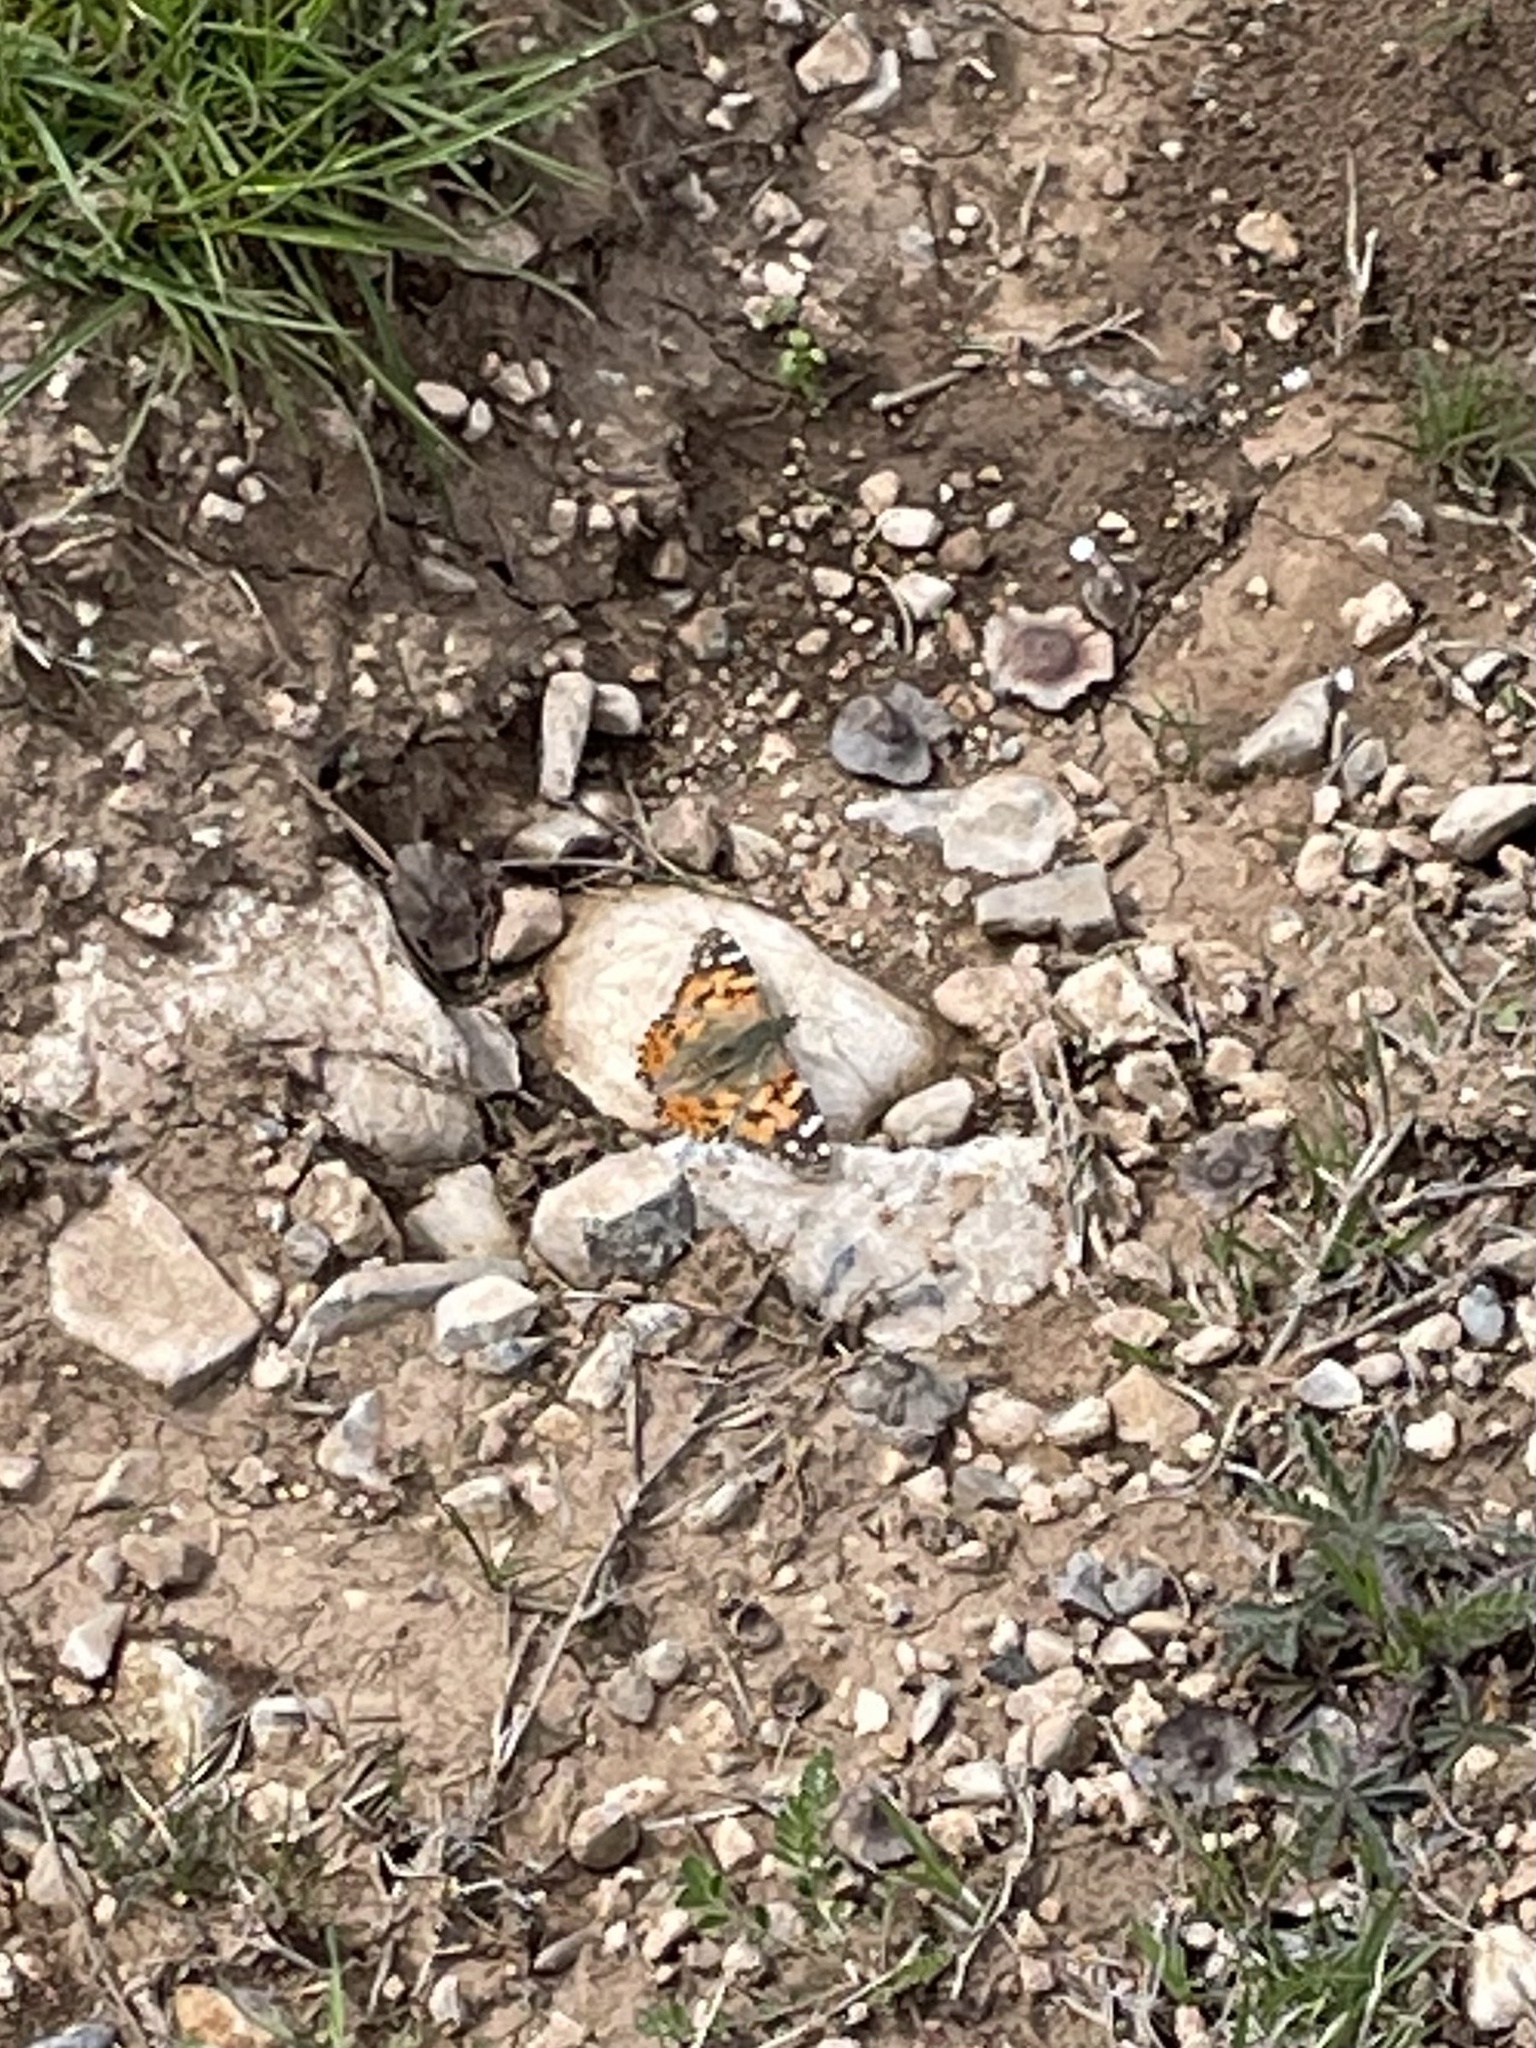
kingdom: Animalia
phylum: Arthropoda
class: Insecta
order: Lepidoptera
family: Nymphalidae
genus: Vanessa
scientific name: Vanessa cardui
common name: Painted lady
